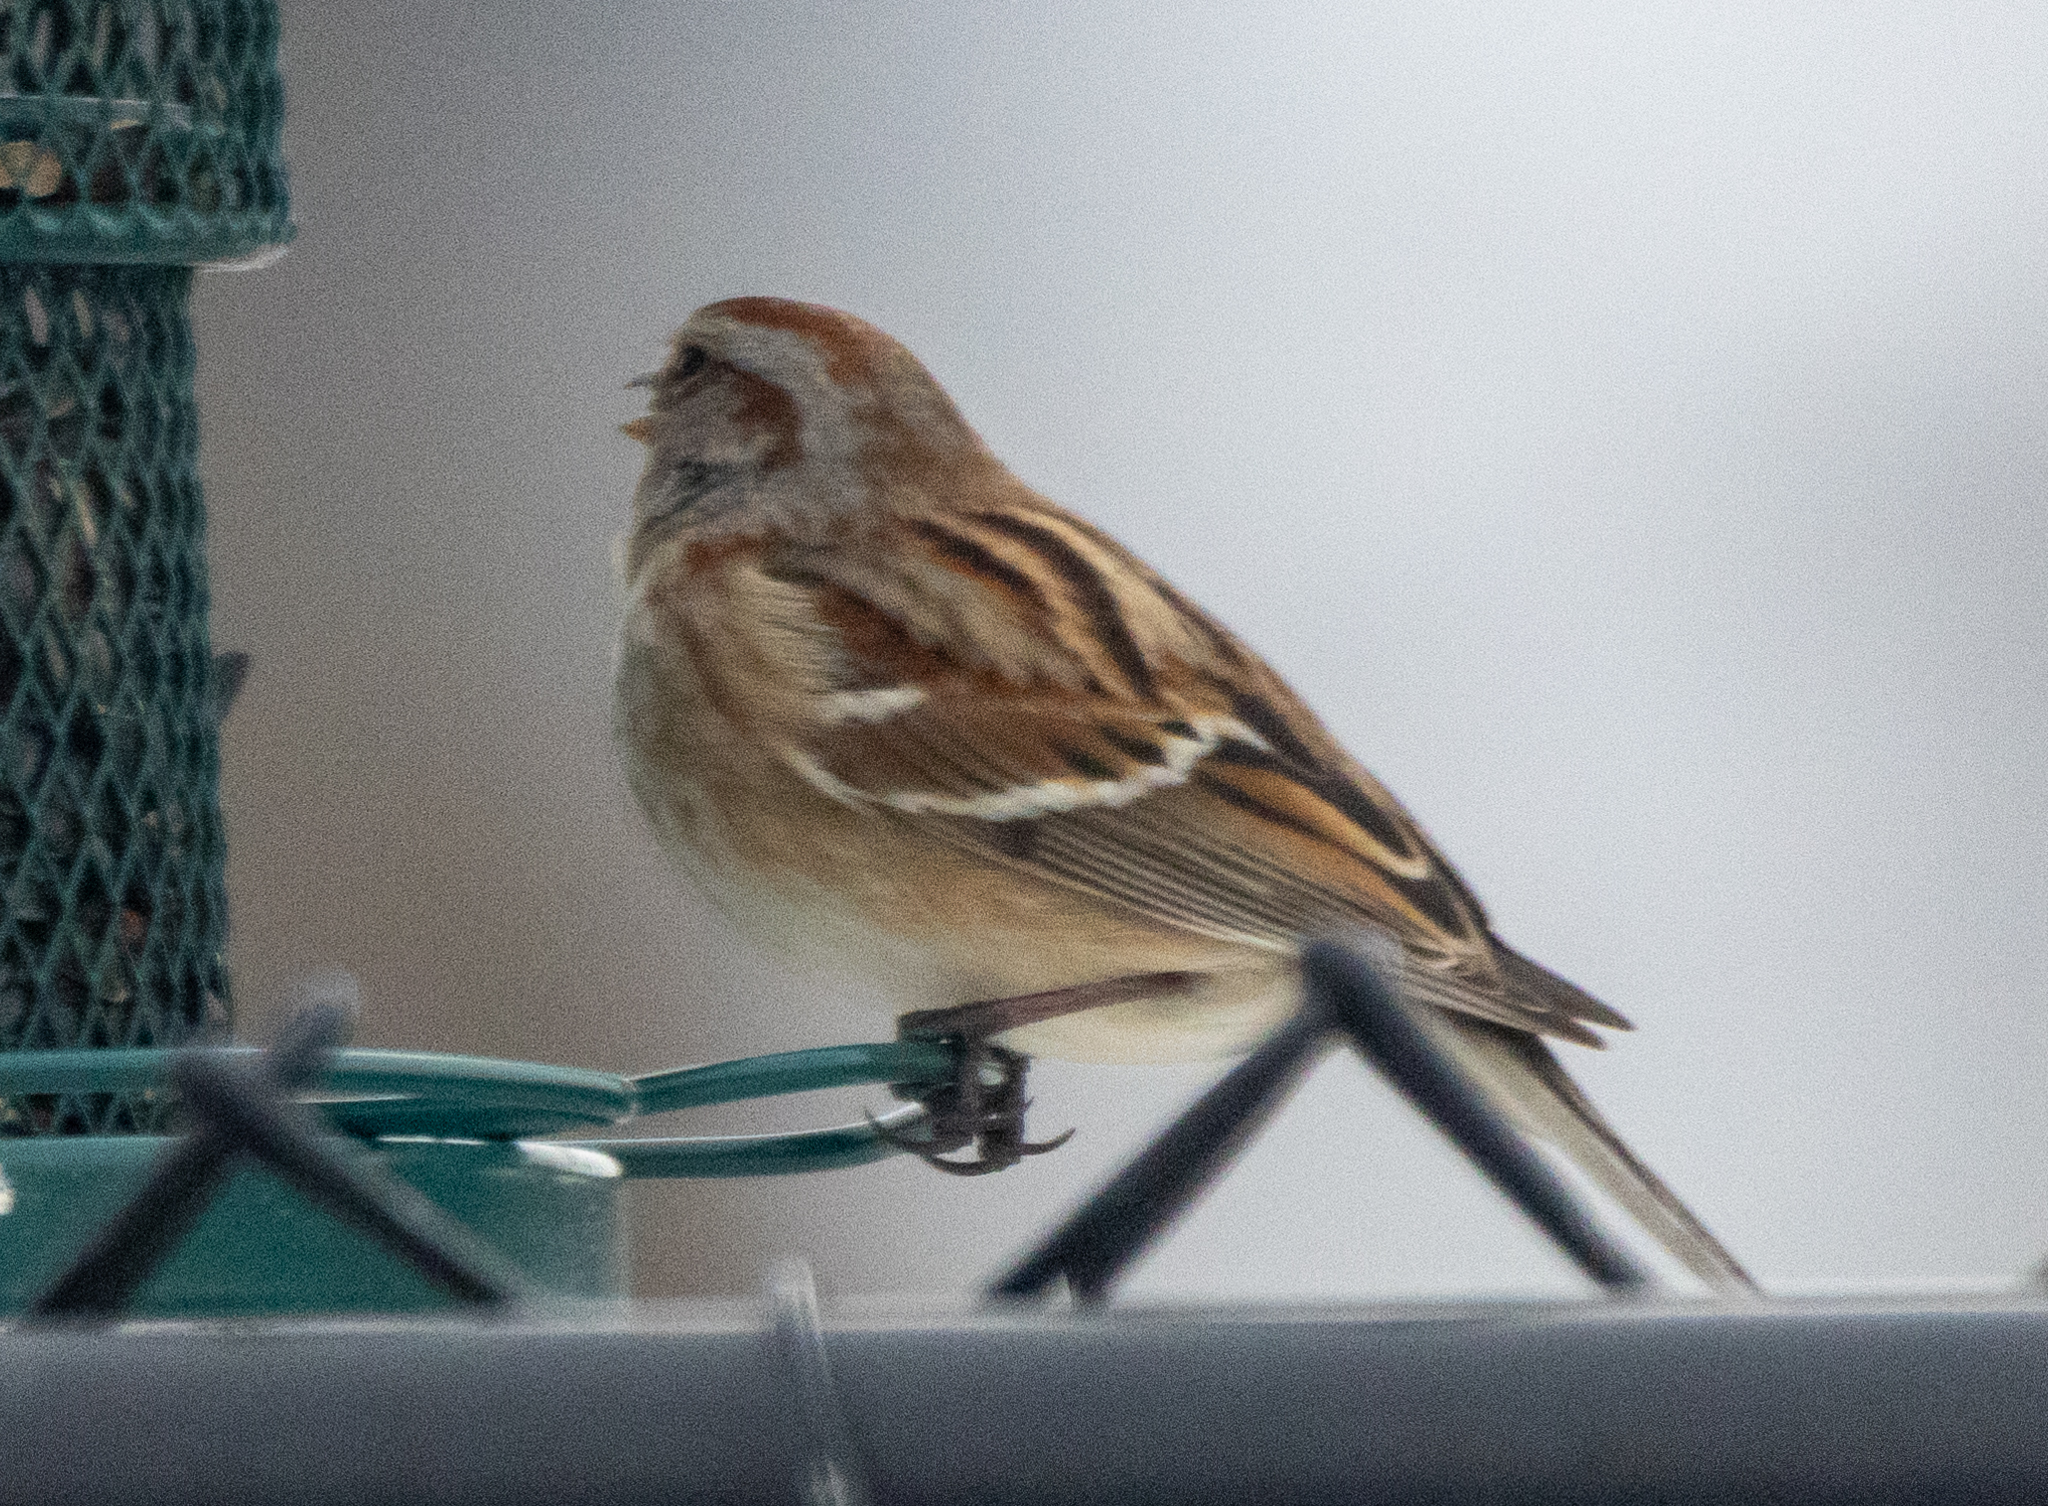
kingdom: Animalia
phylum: Chordata
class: Aves
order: Passeriformes
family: Passerellidae
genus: Spizelloides
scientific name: Spizelloides arborea
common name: American tree sparrow
